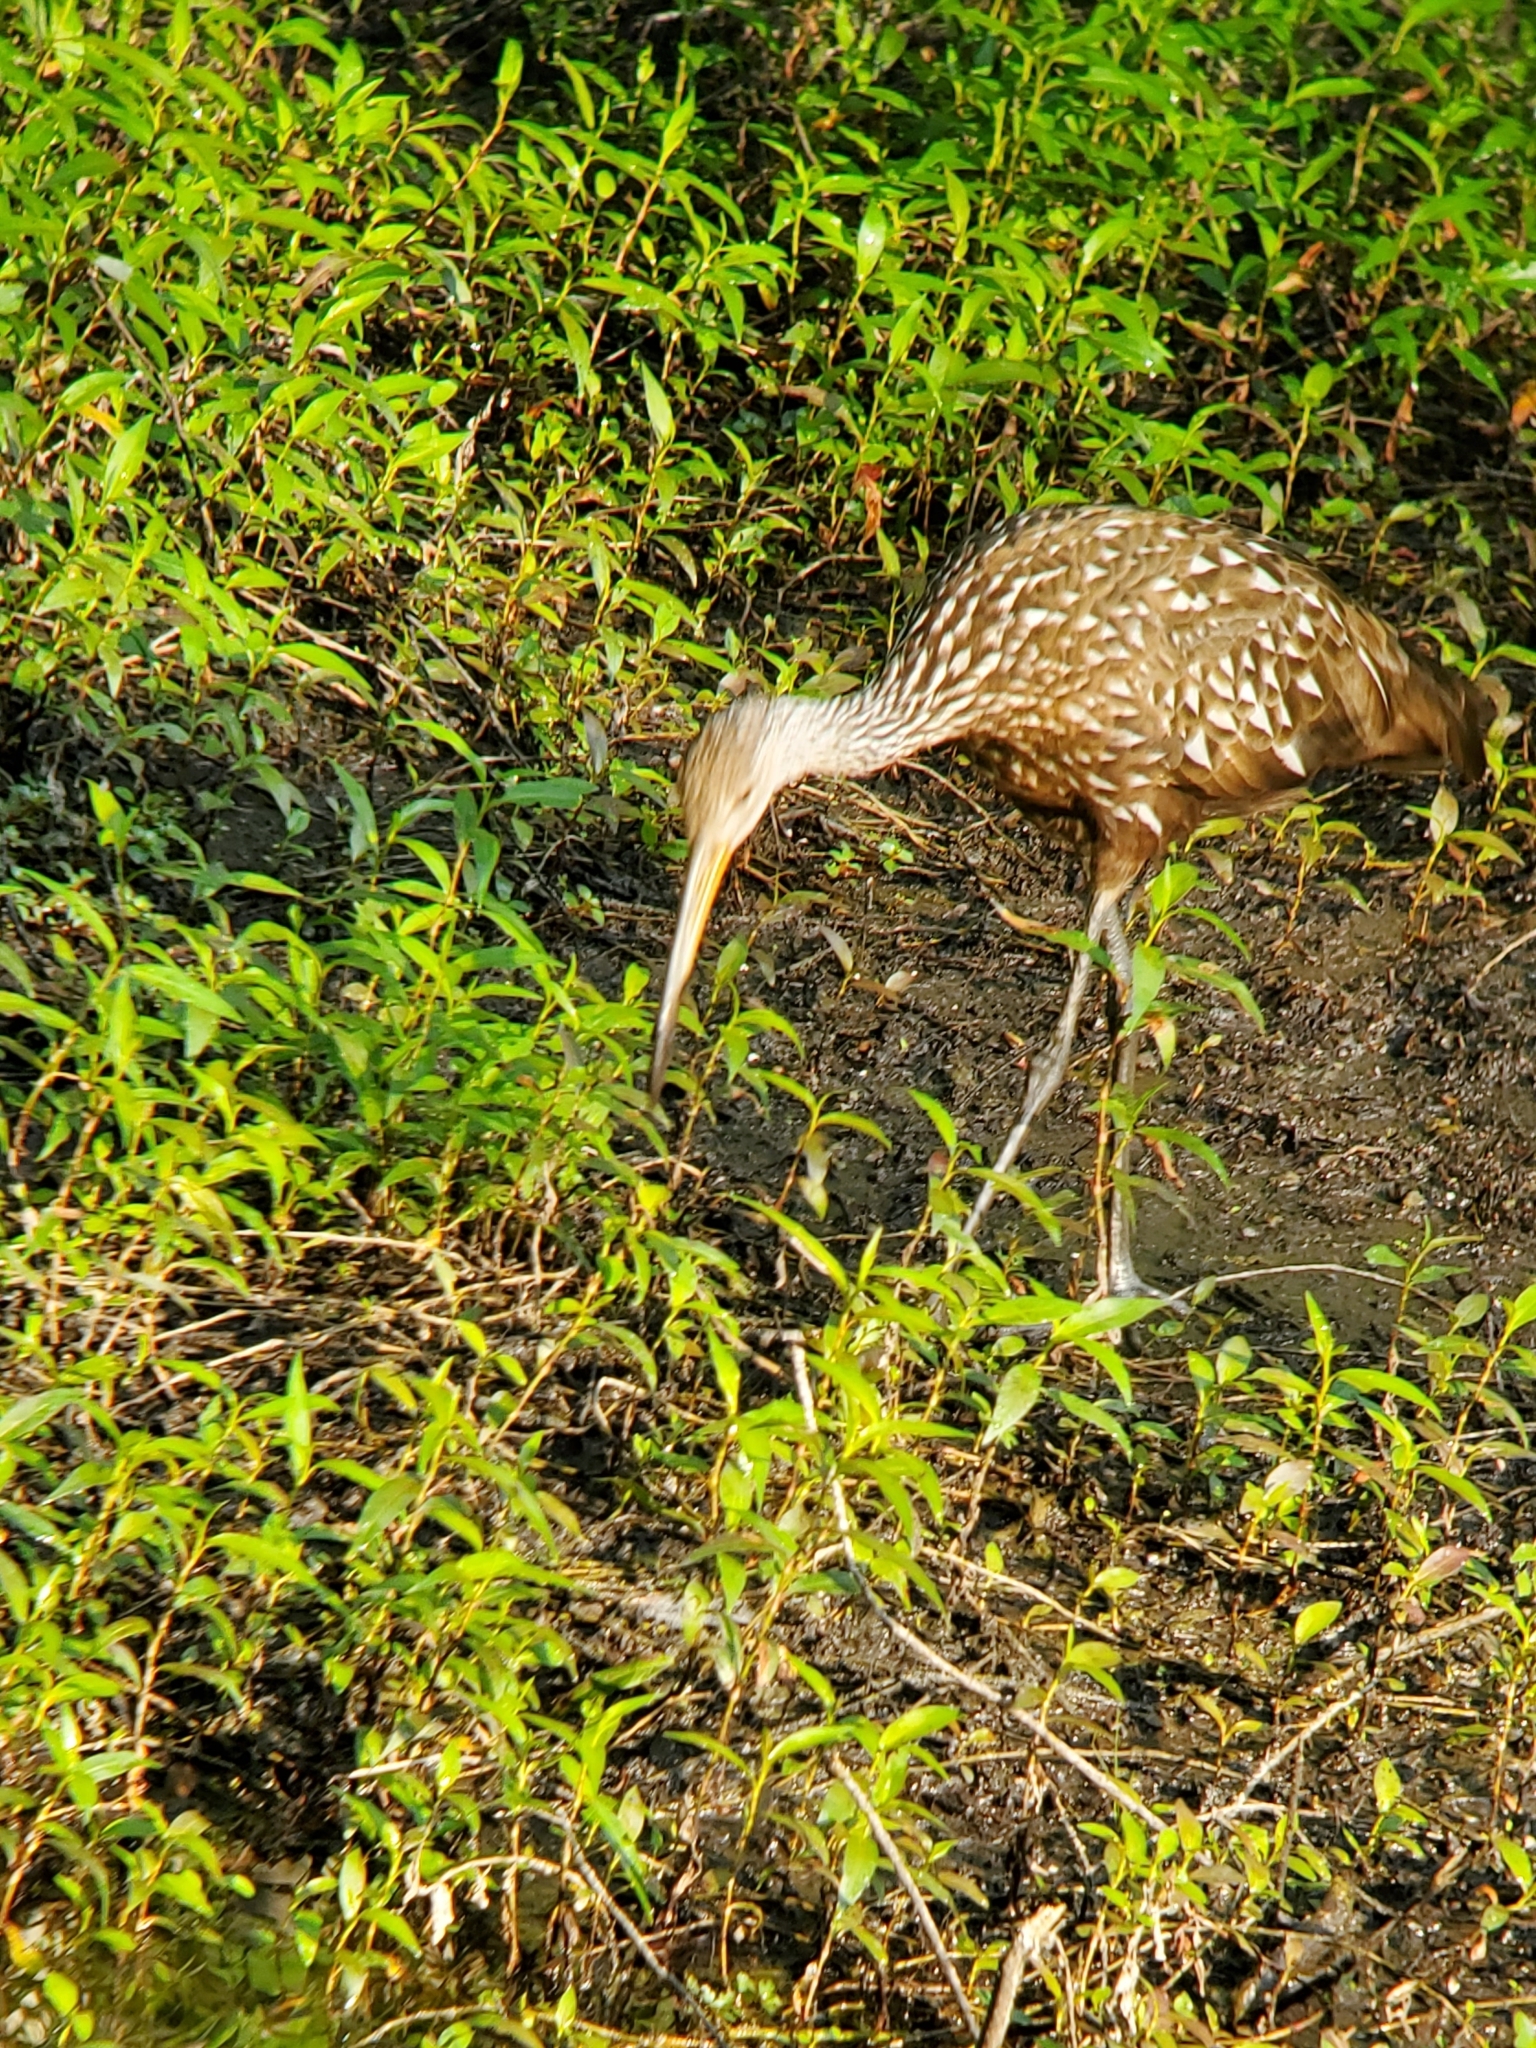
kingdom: Animalia
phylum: Chordata
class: Aves
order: Gruiformes
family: Aramidae
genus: Aramus
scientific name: Aramus guarauna
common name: Limpkin
